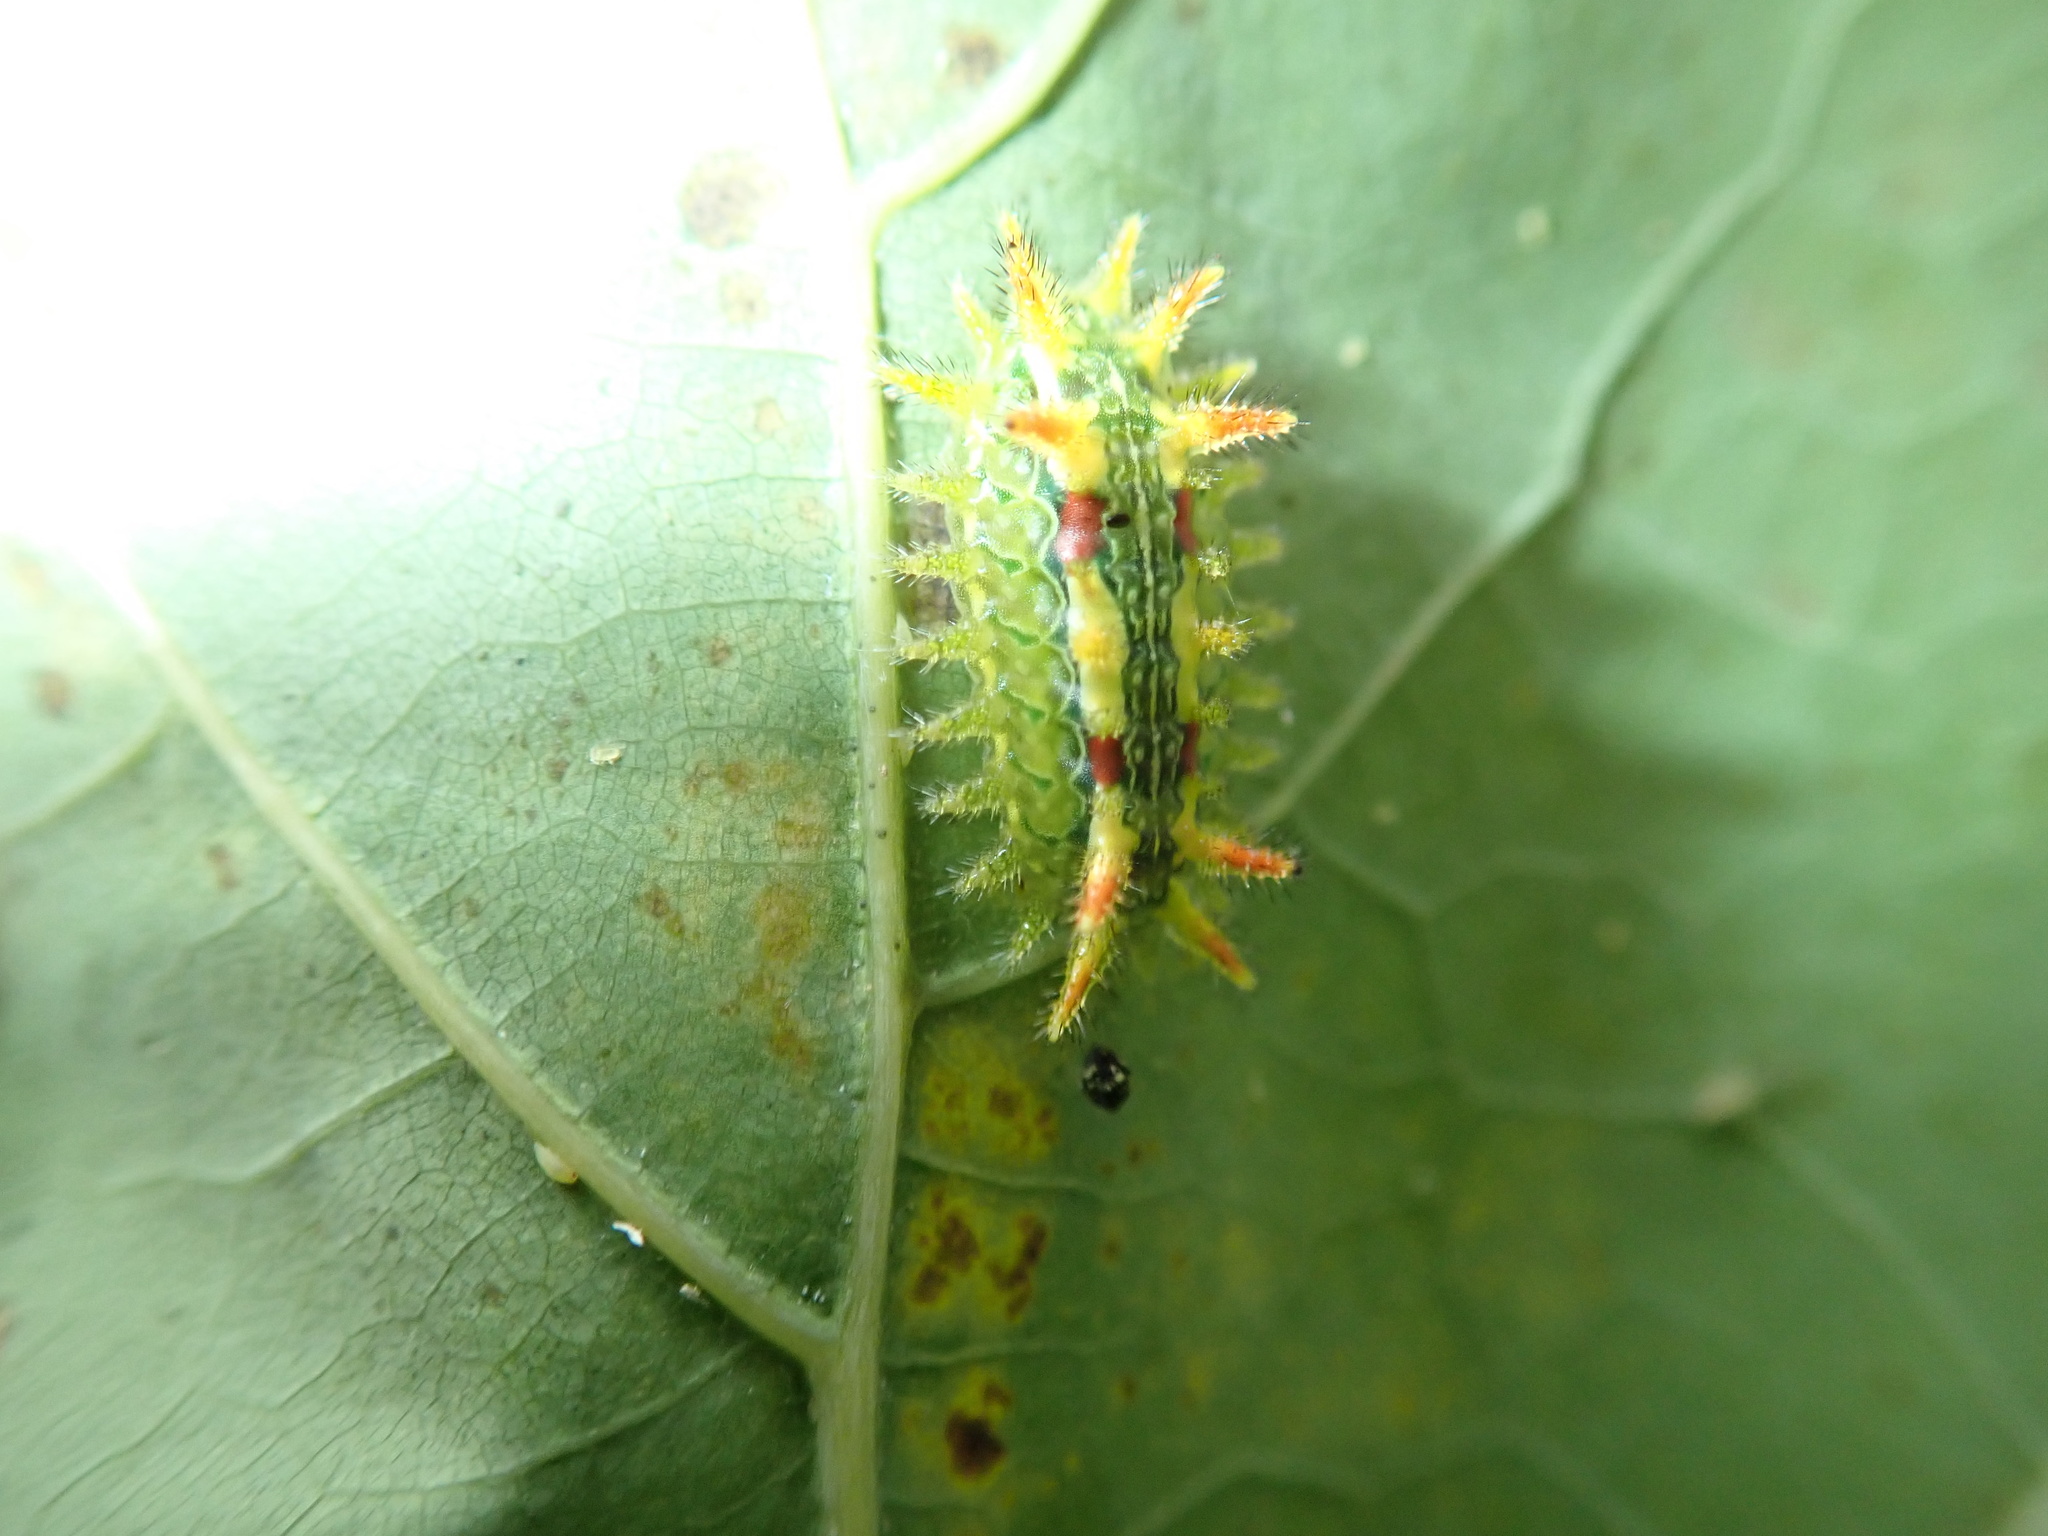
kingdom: Animalia
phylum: Arthropoda
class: Insecta
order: Lepidoptera
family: Limacodidae
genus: Euclea
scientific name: Euclea delphinii
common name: Spiny oak-slug moth
